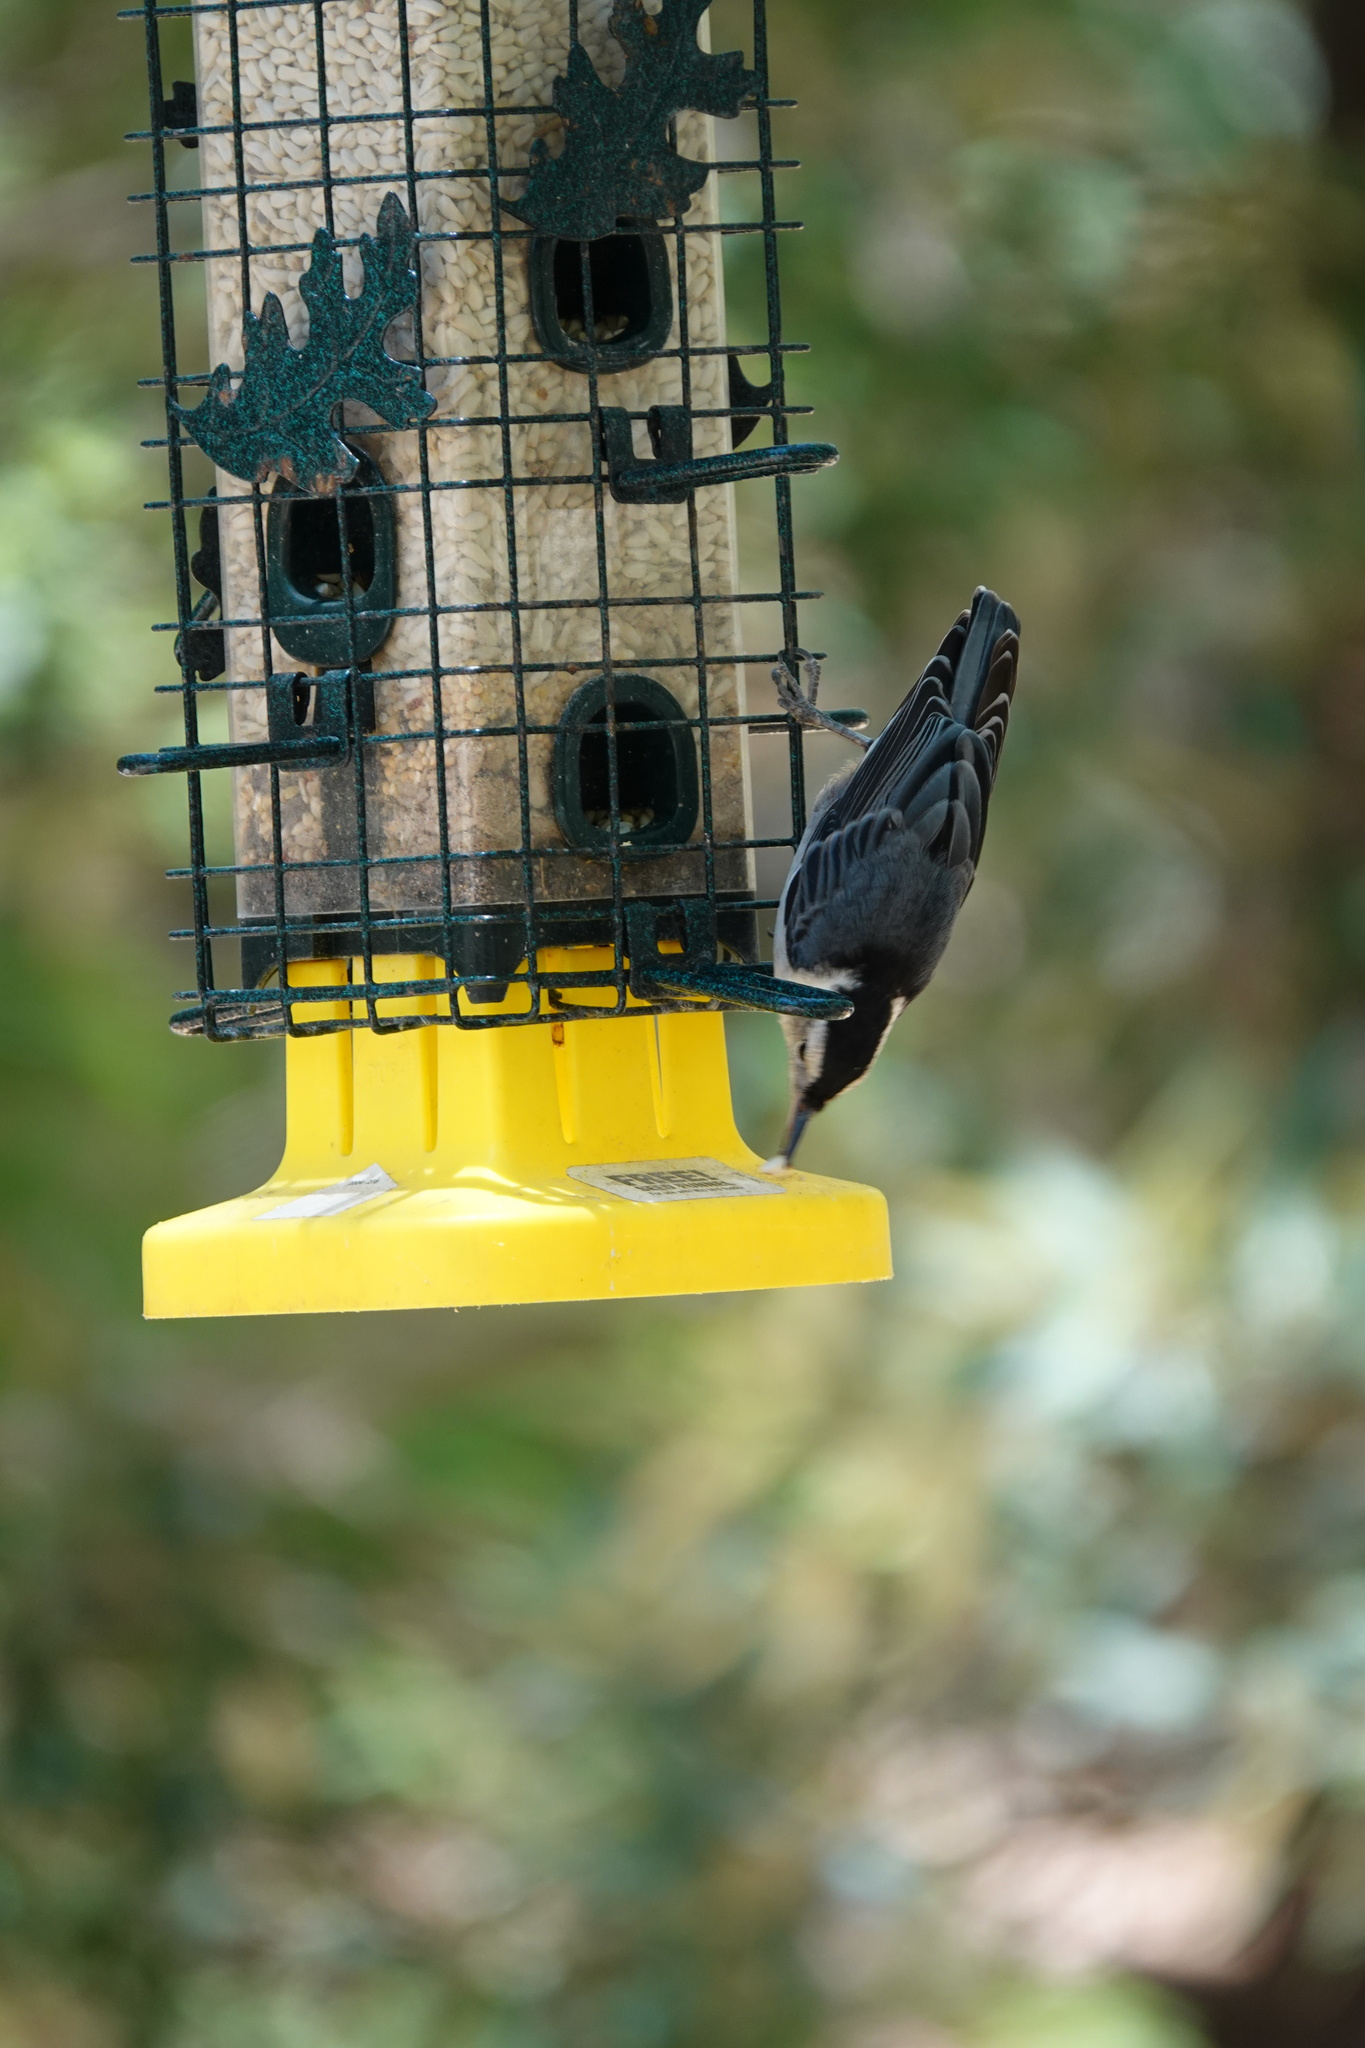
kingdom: Animalia
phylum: Chordata
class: Aves
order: Passeriformes
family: Sittidae
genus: Sitta
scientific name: Sitta carolinensis
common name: White-breasted nuthatch
